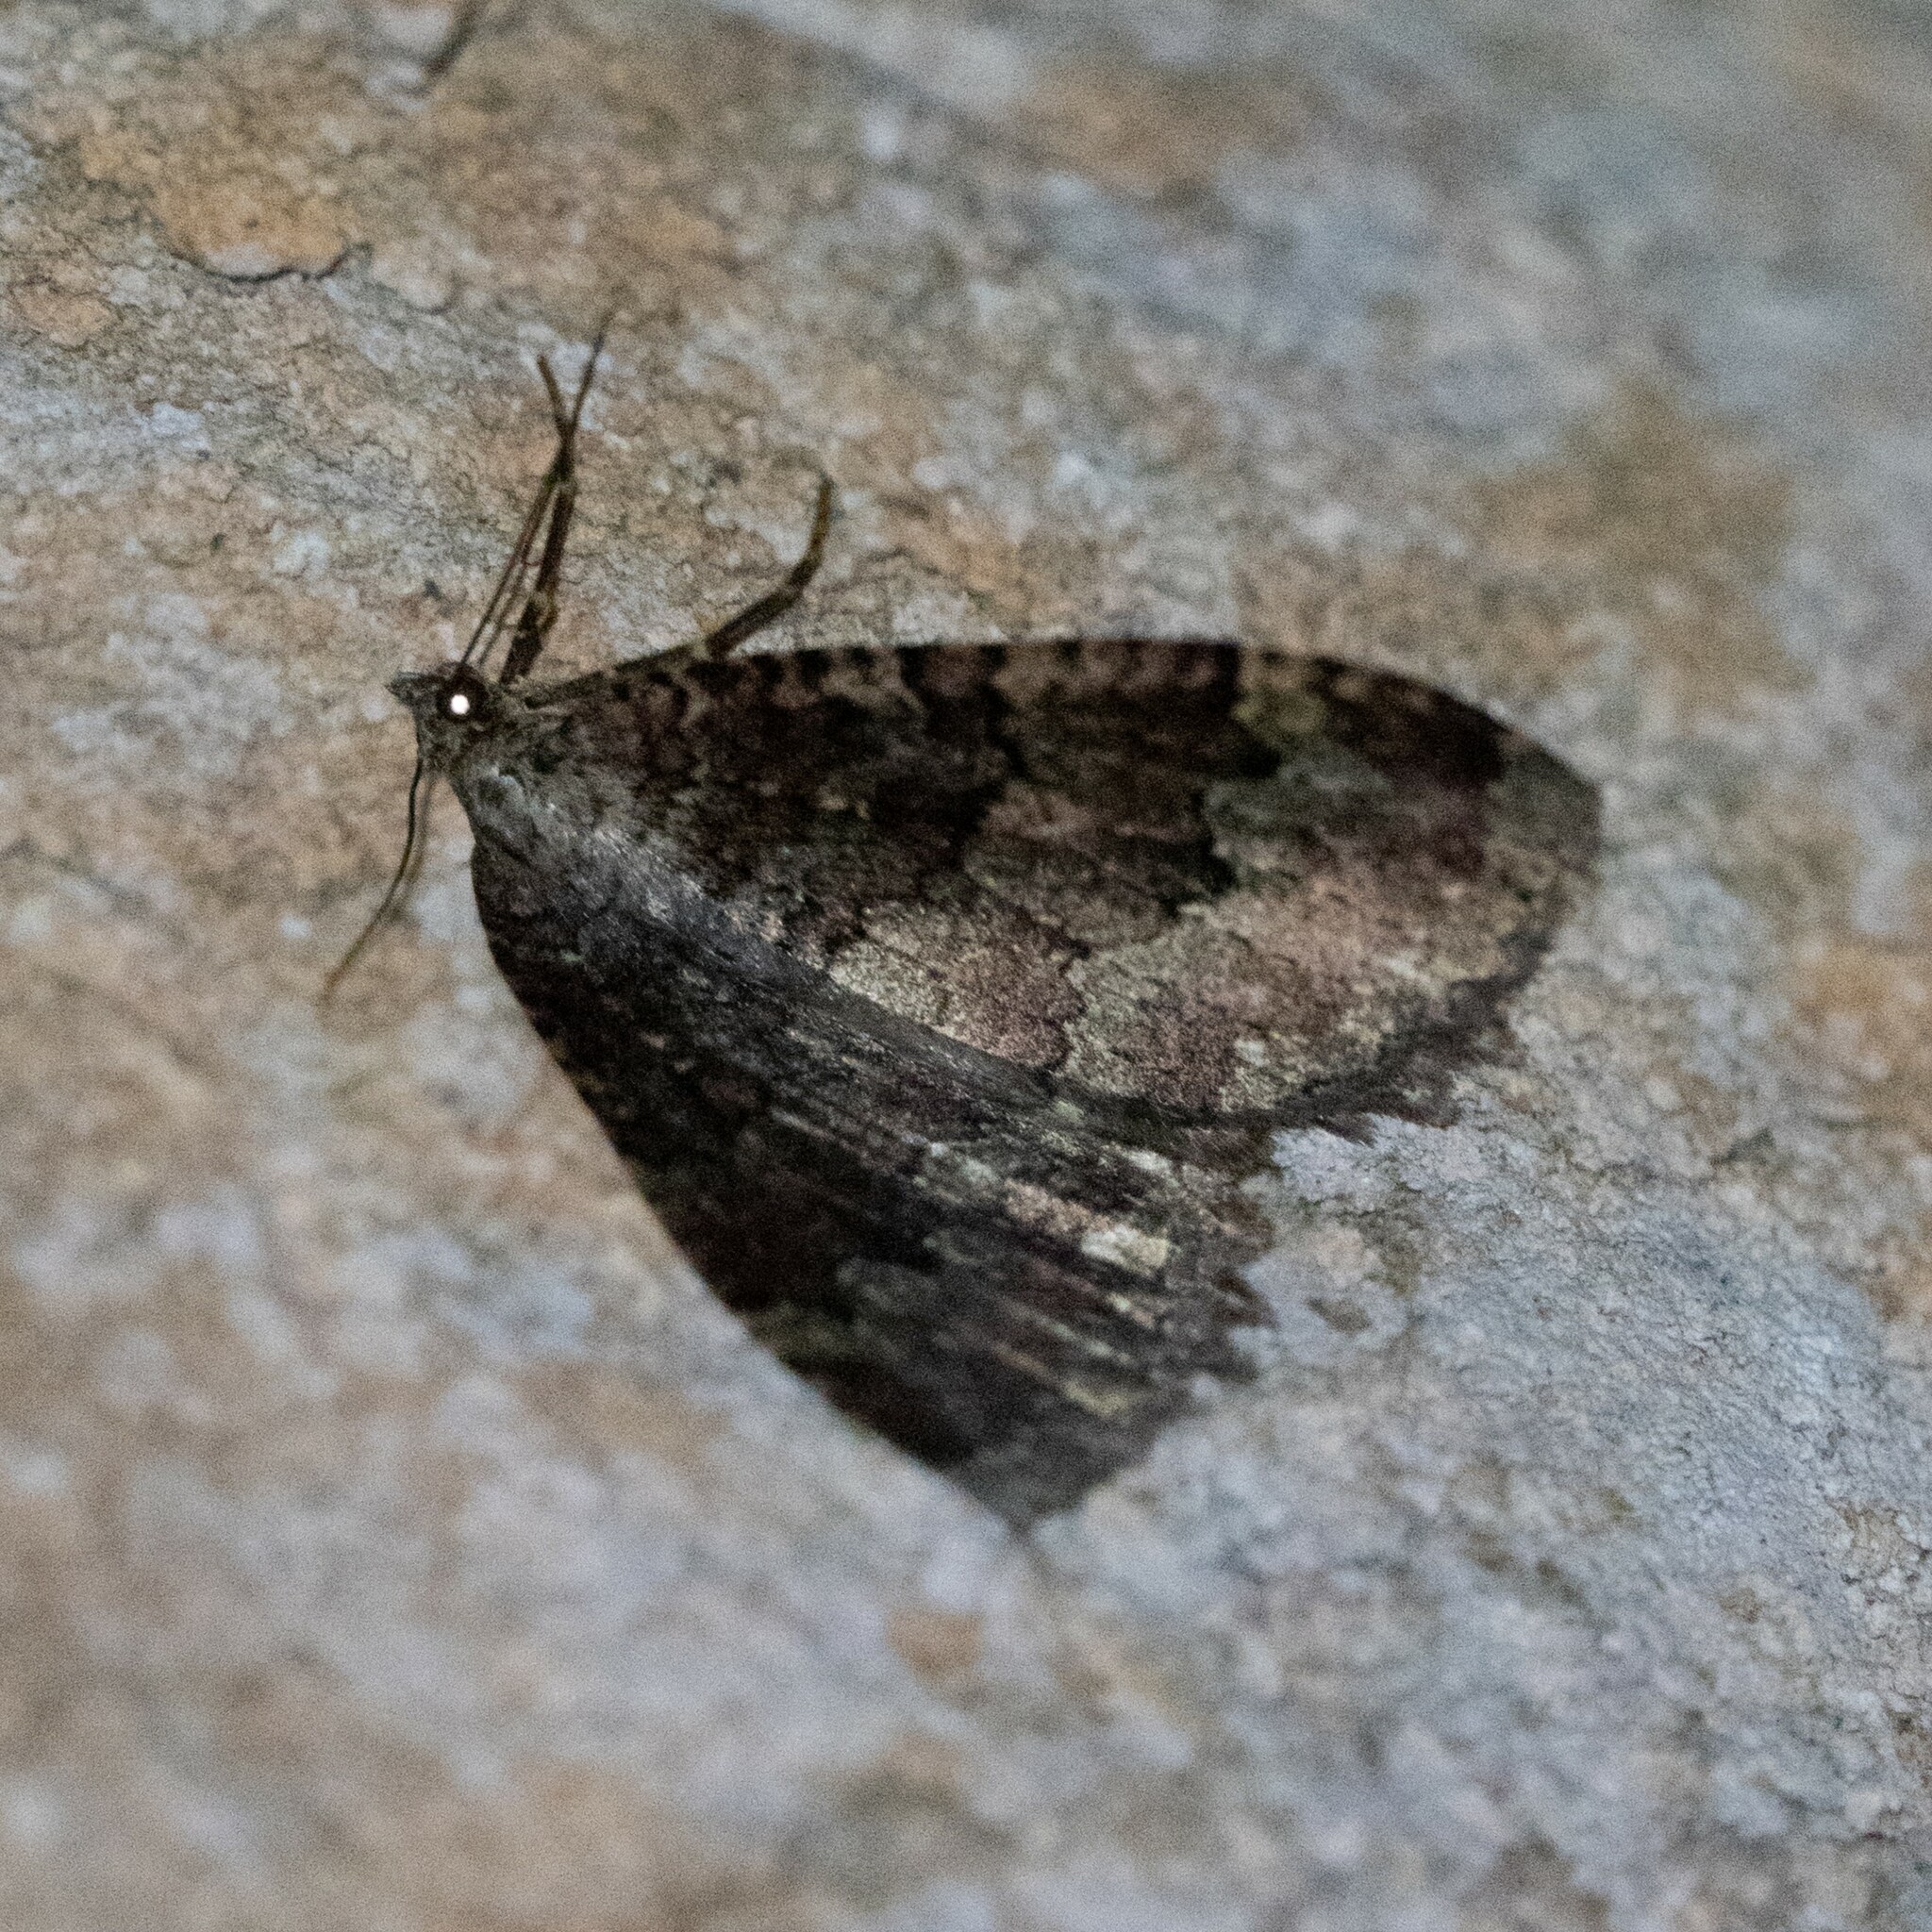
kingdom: Animalia
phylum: Arthropoda
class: Insecta
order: Lepidoptera
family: Geometridae
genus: Triphosa
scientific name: Triphosa dubitata
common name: Tissue
